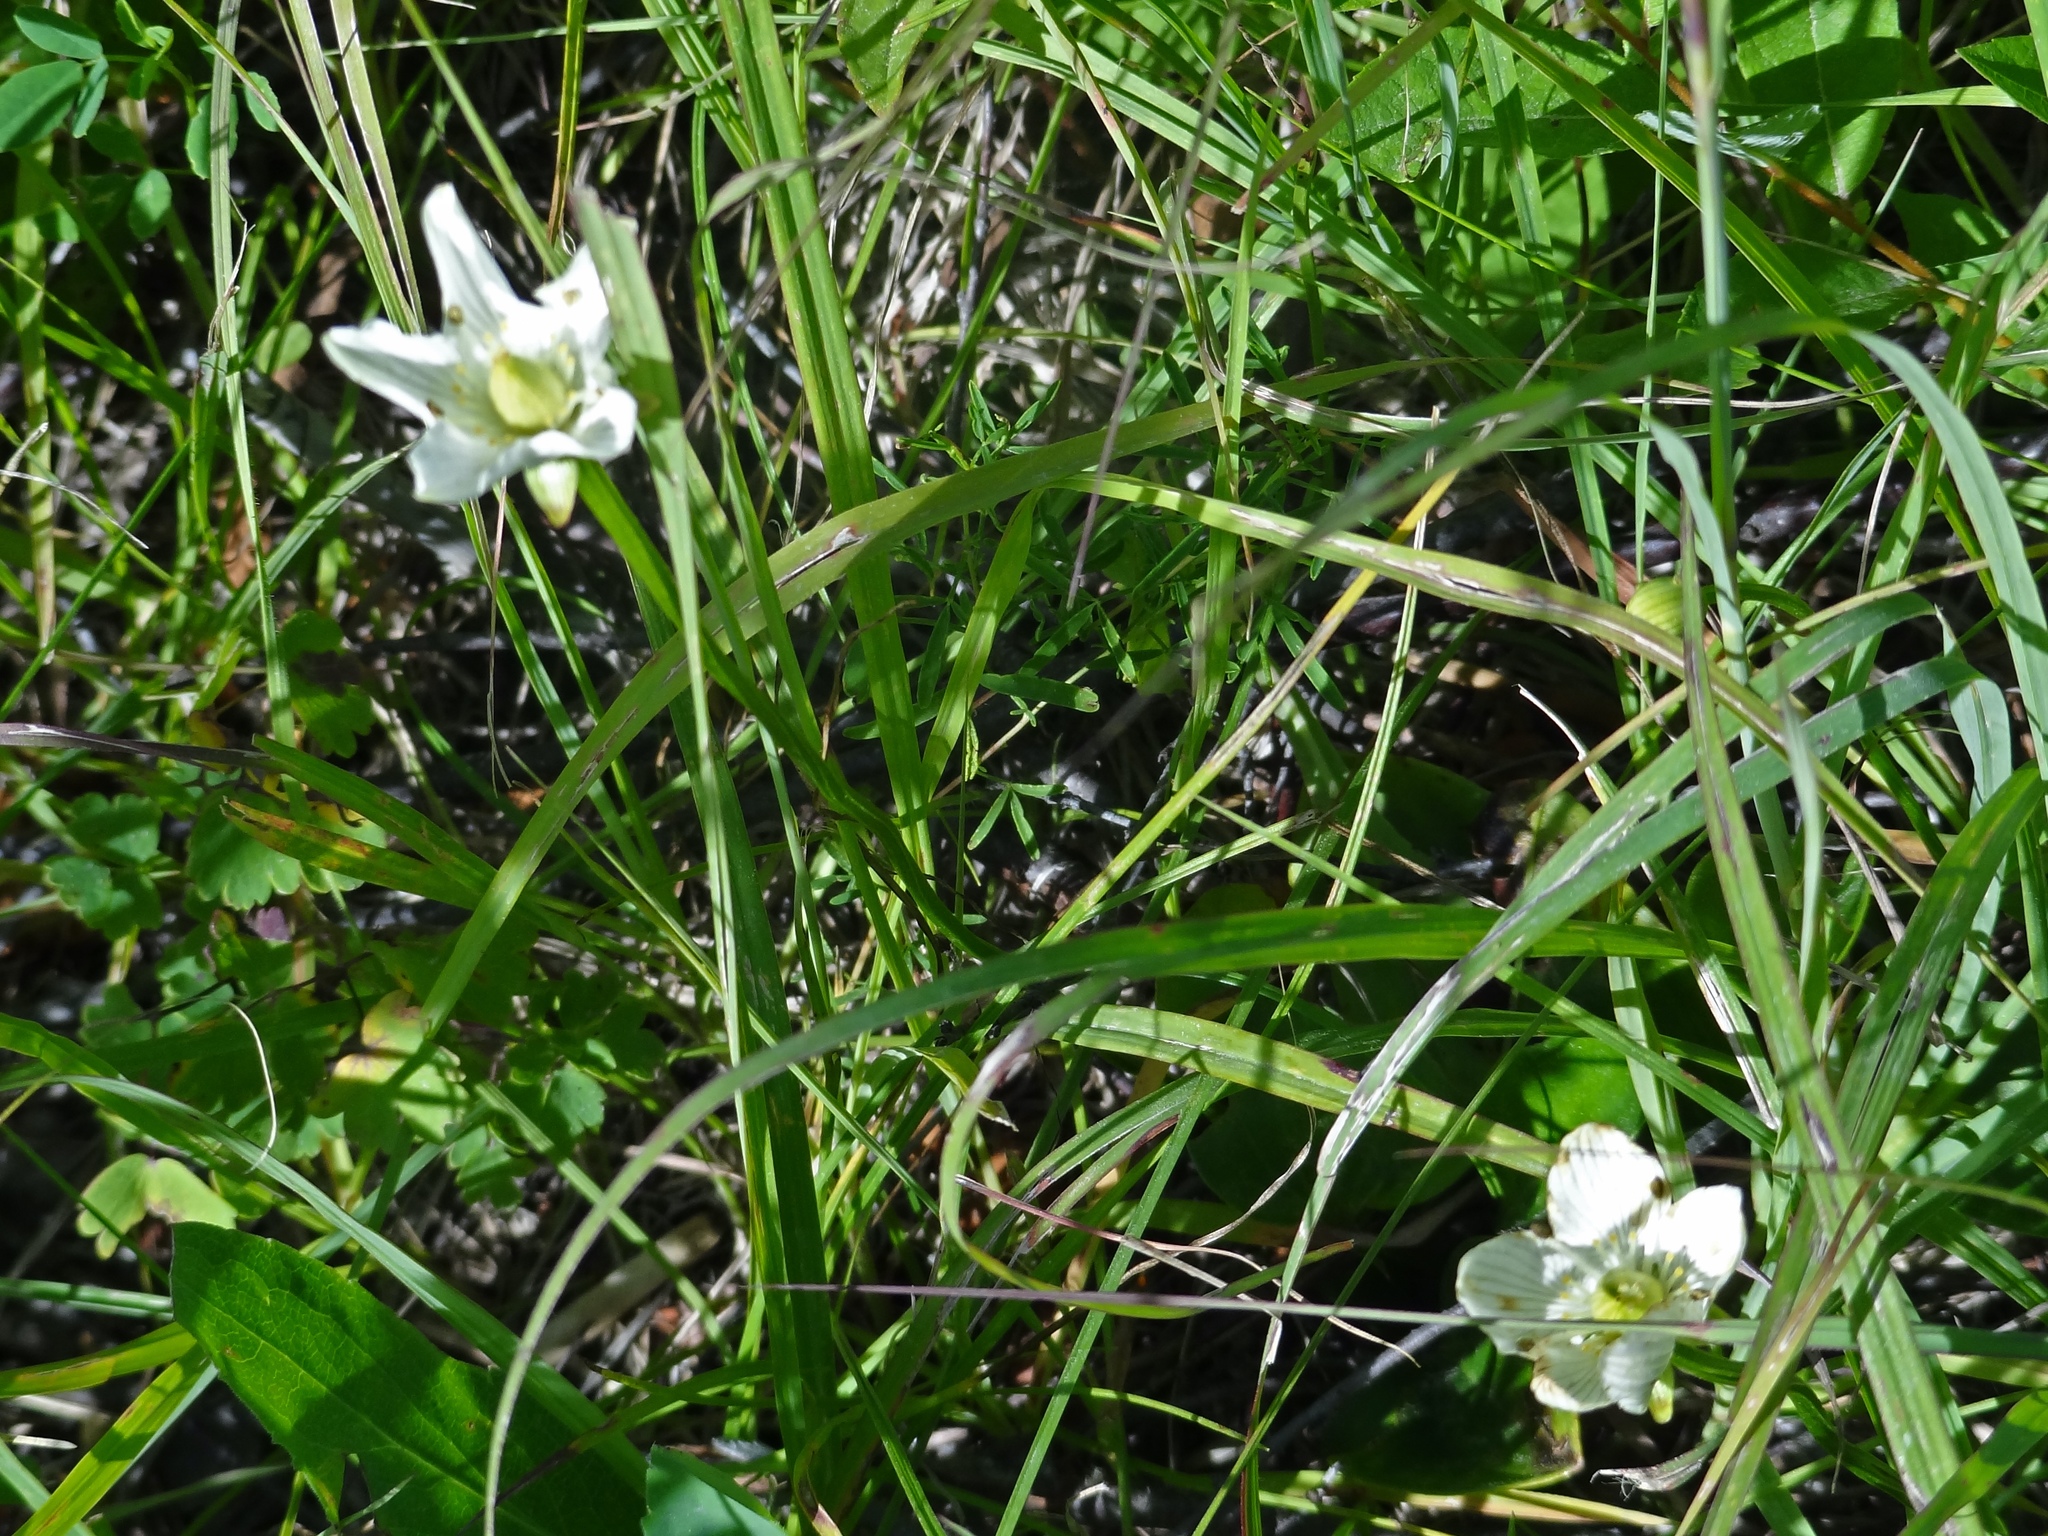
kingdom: Plantae
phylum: Tracheophyta
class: Magnoliopsida
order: Celastrales
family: Parnassiaceae
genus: Parnassia
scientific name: Parnassia glauca
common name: American grass-of-parnassus
